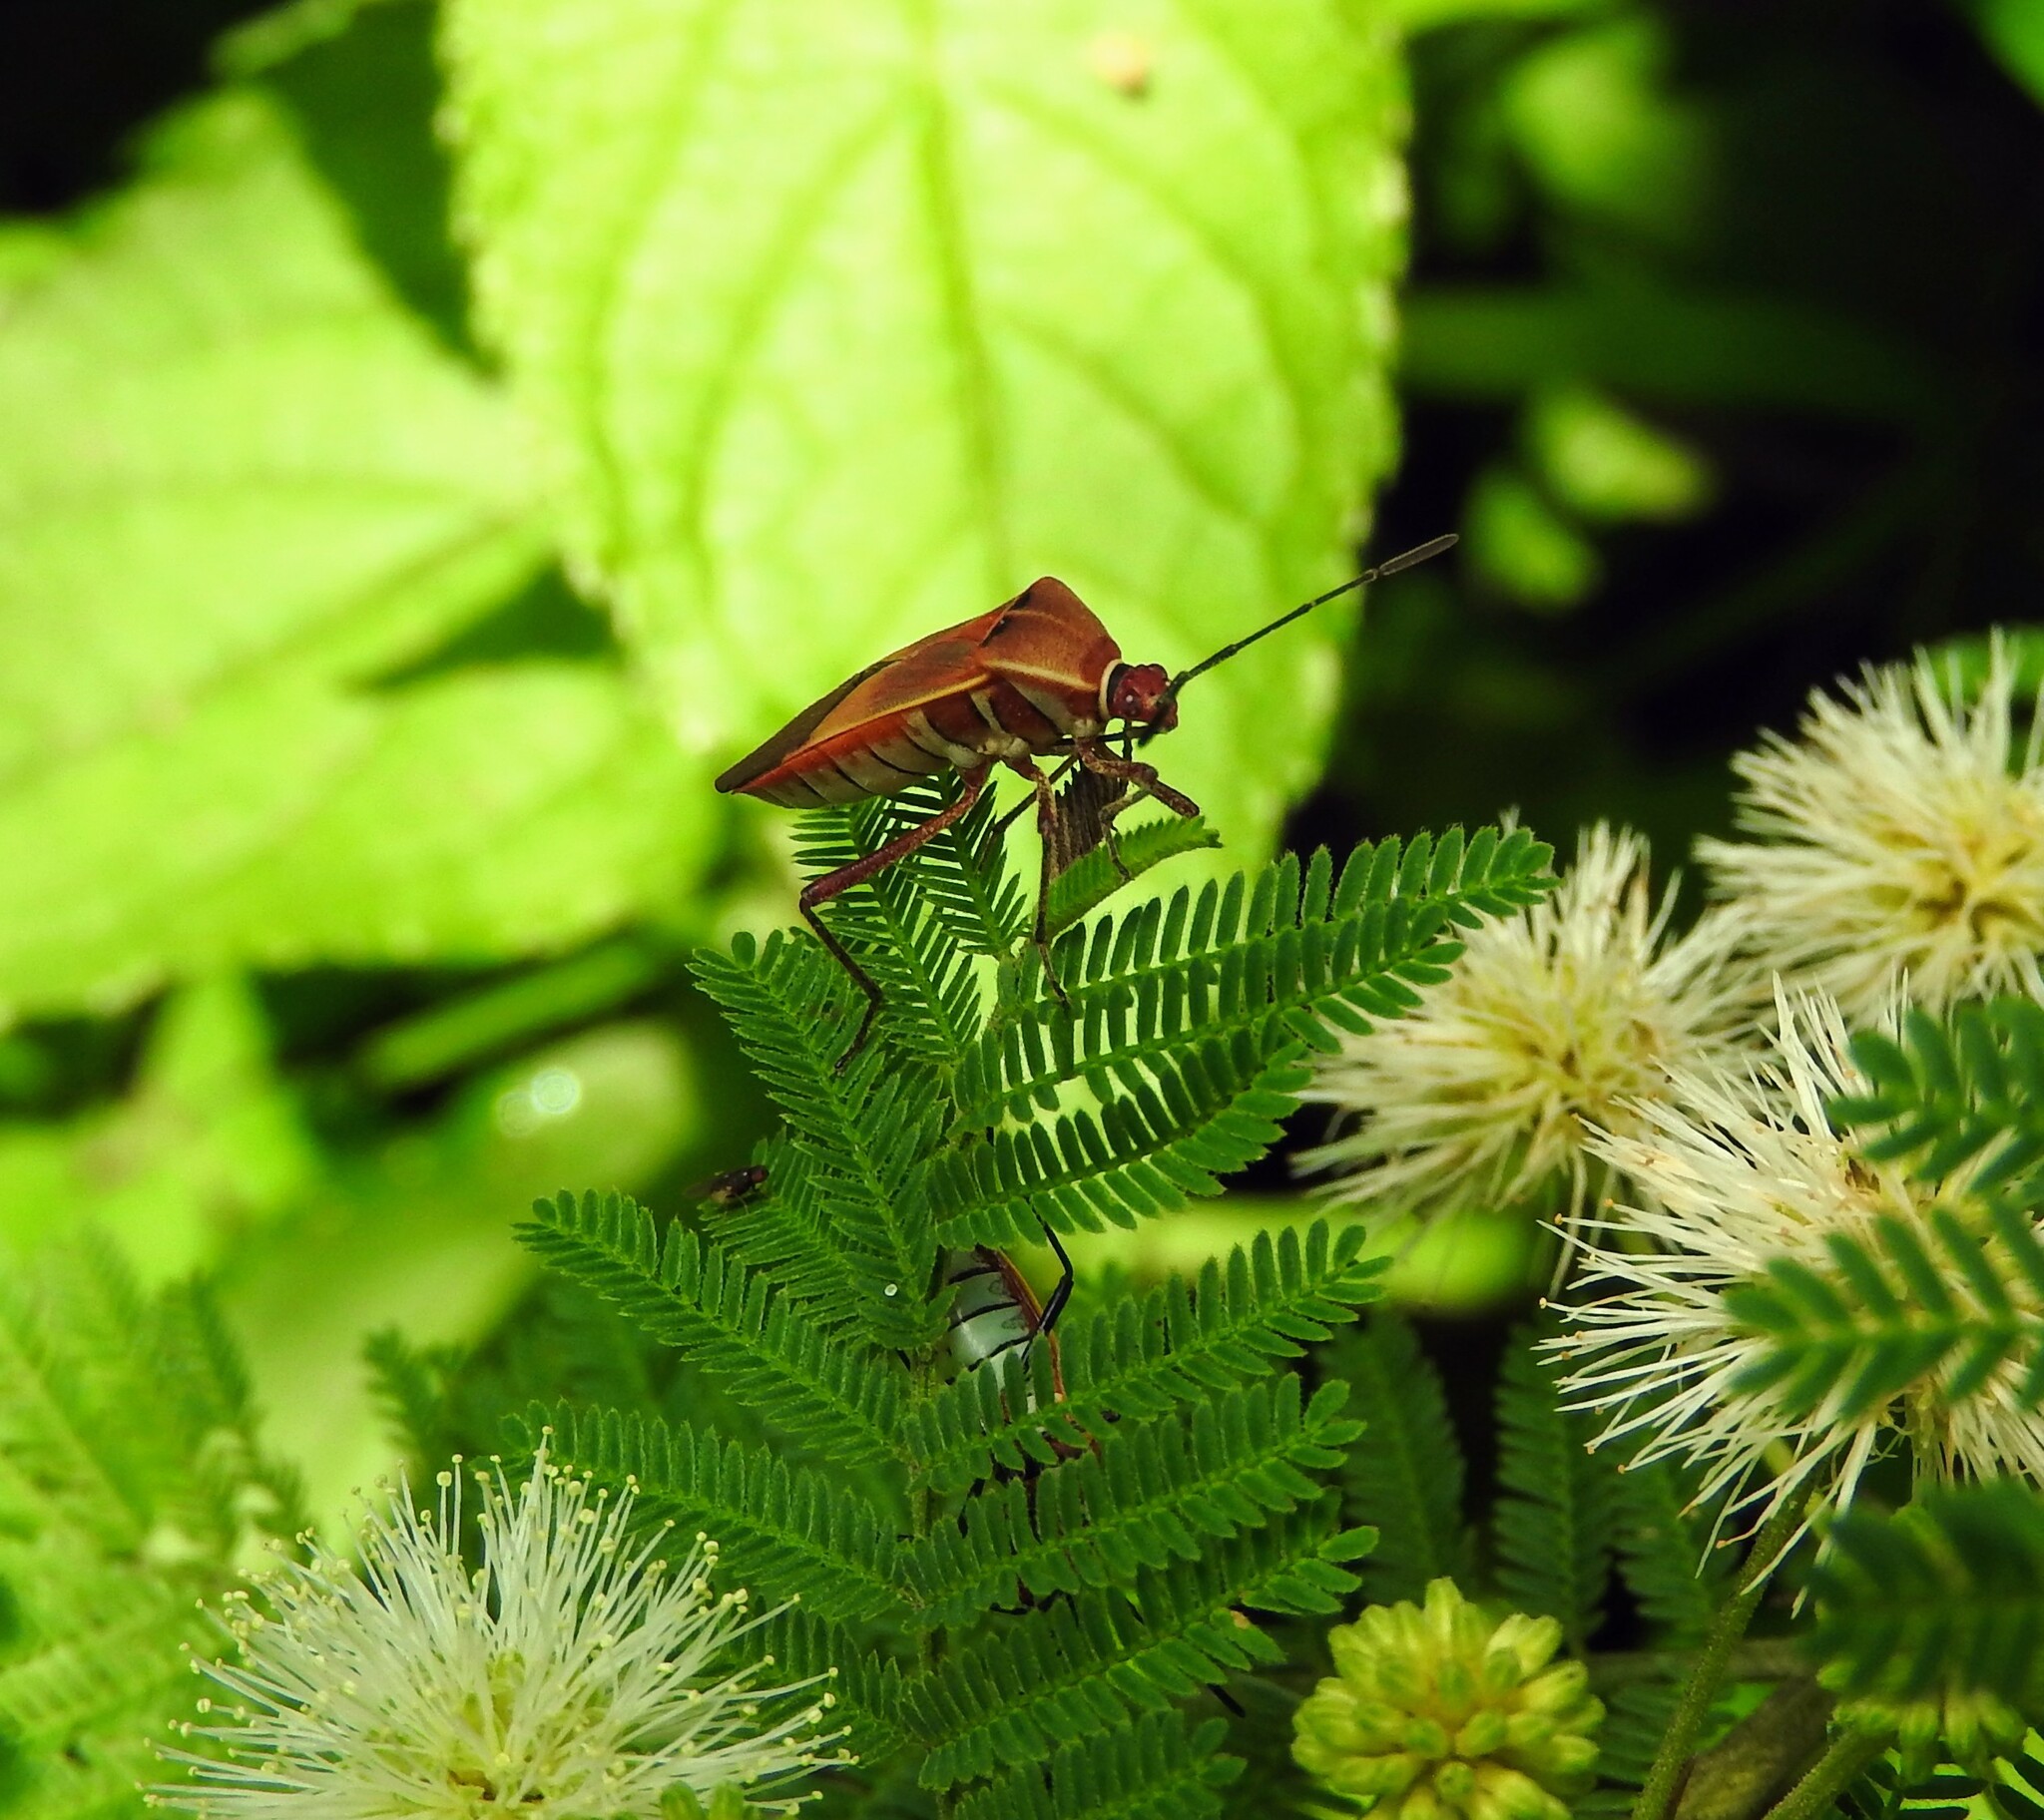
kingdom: Animalia
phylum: Arthropoda
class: Insecta
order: Hemiptera
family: Coreidae
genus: Hypselonotus
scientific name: Hypselonotus interruptus
